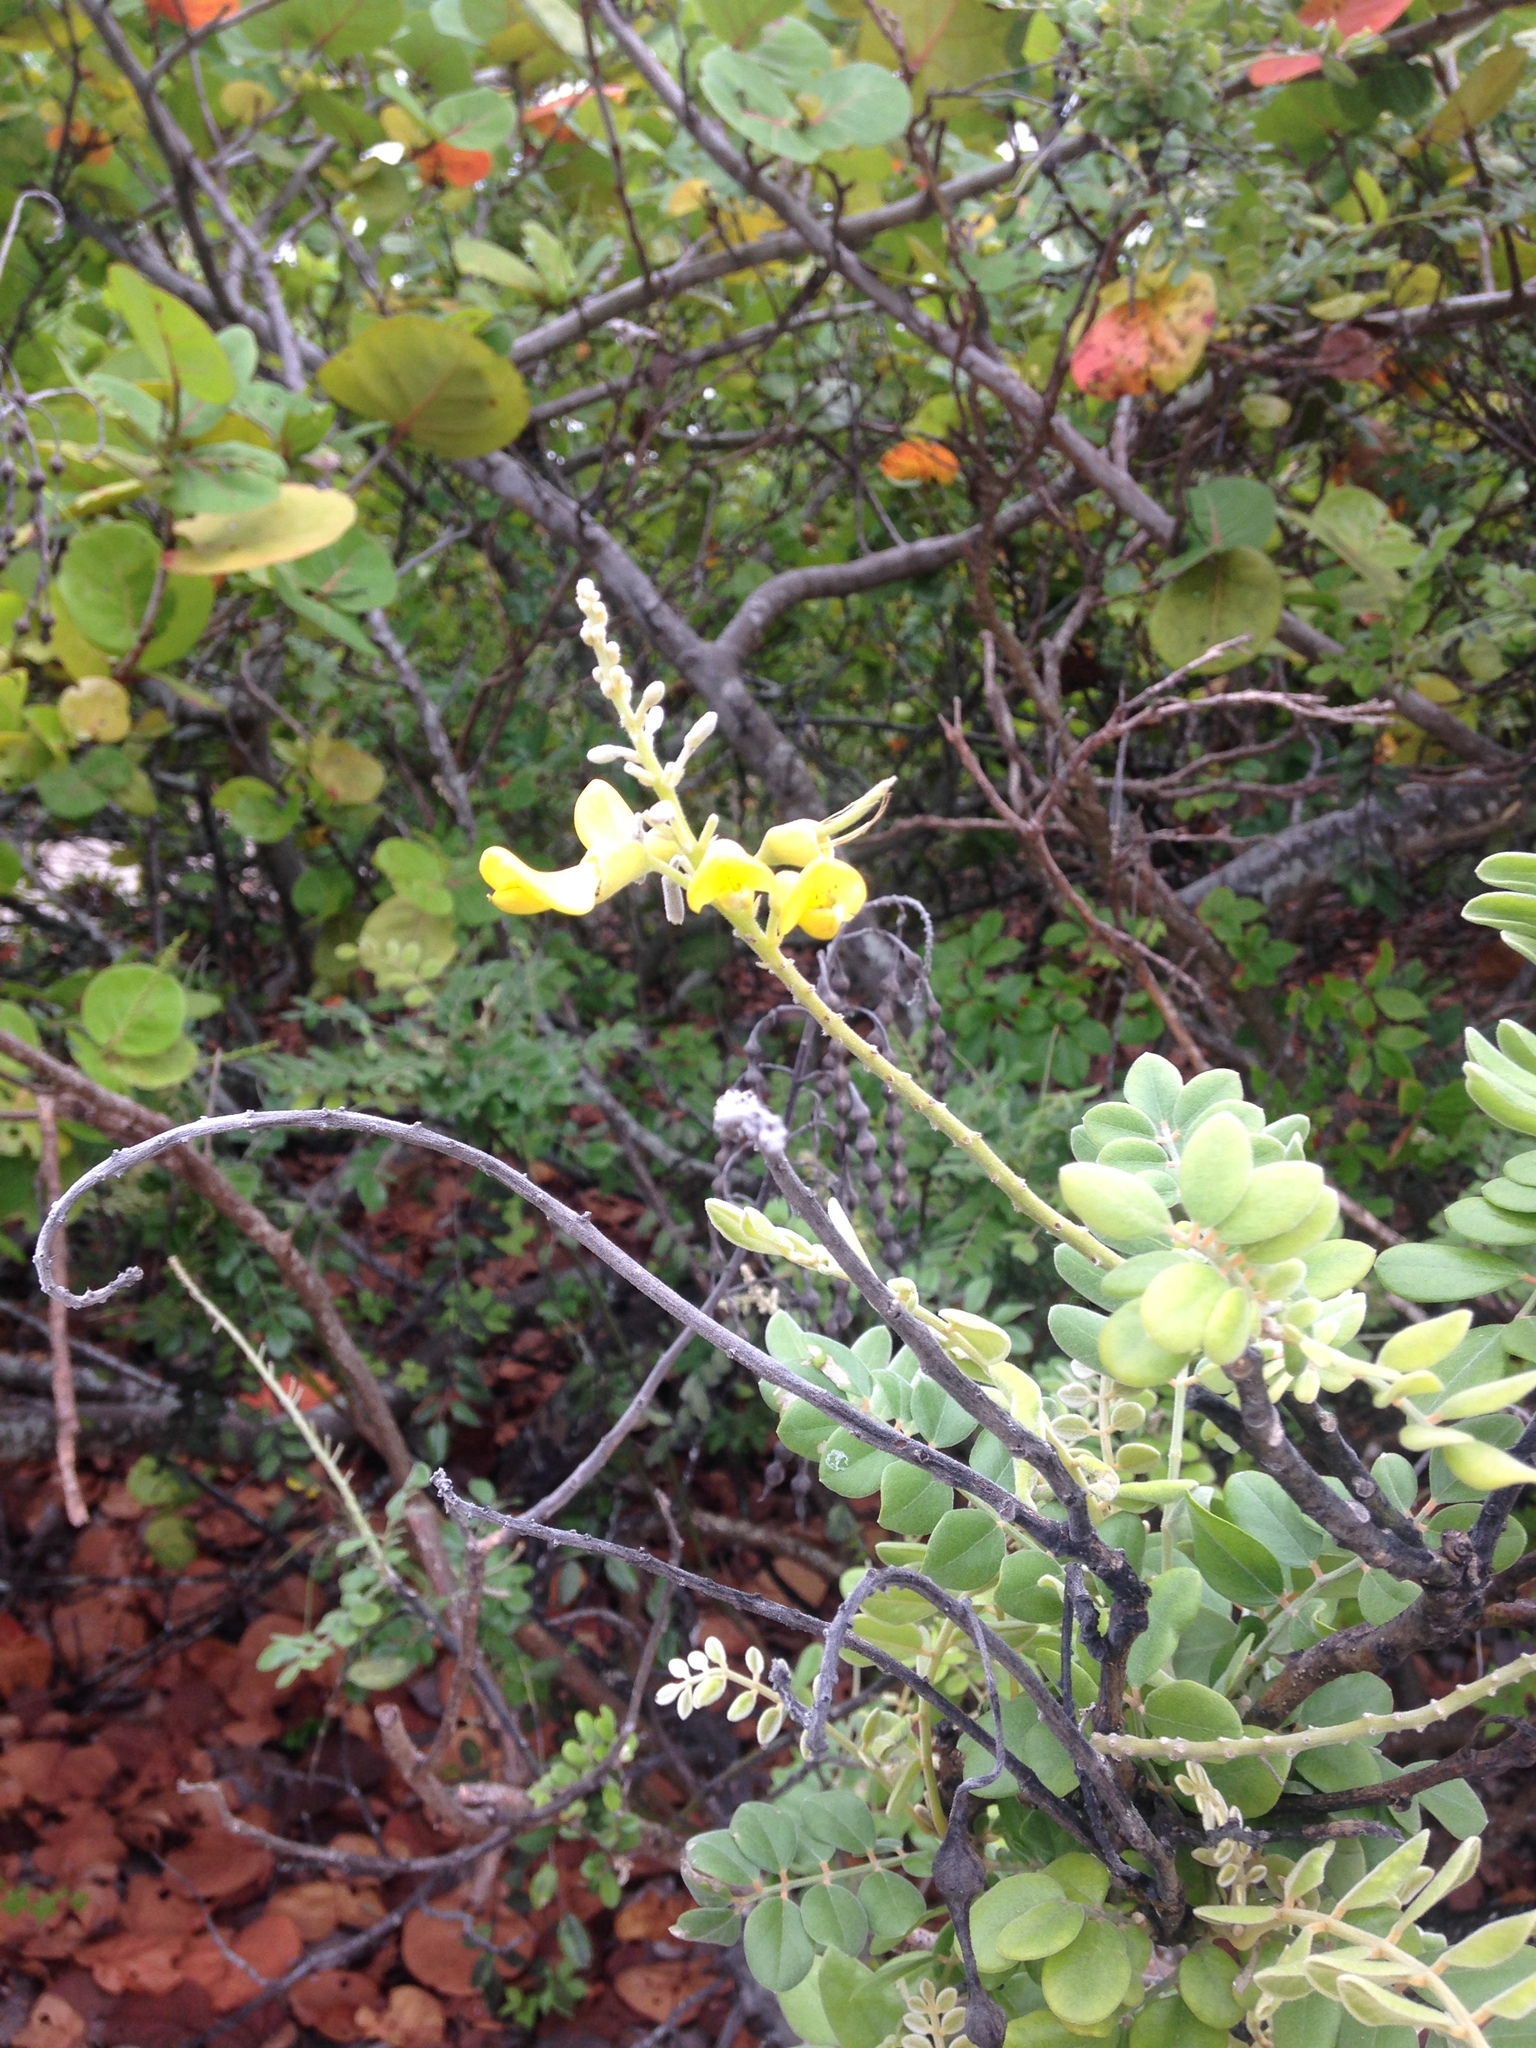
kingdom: Plantae
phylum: Tracheophyta
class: Magnoliopsida
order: Fabales
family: Fabaceae
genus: Sophora
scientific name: Sophora tomentosa
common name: Yellow necklacepod
